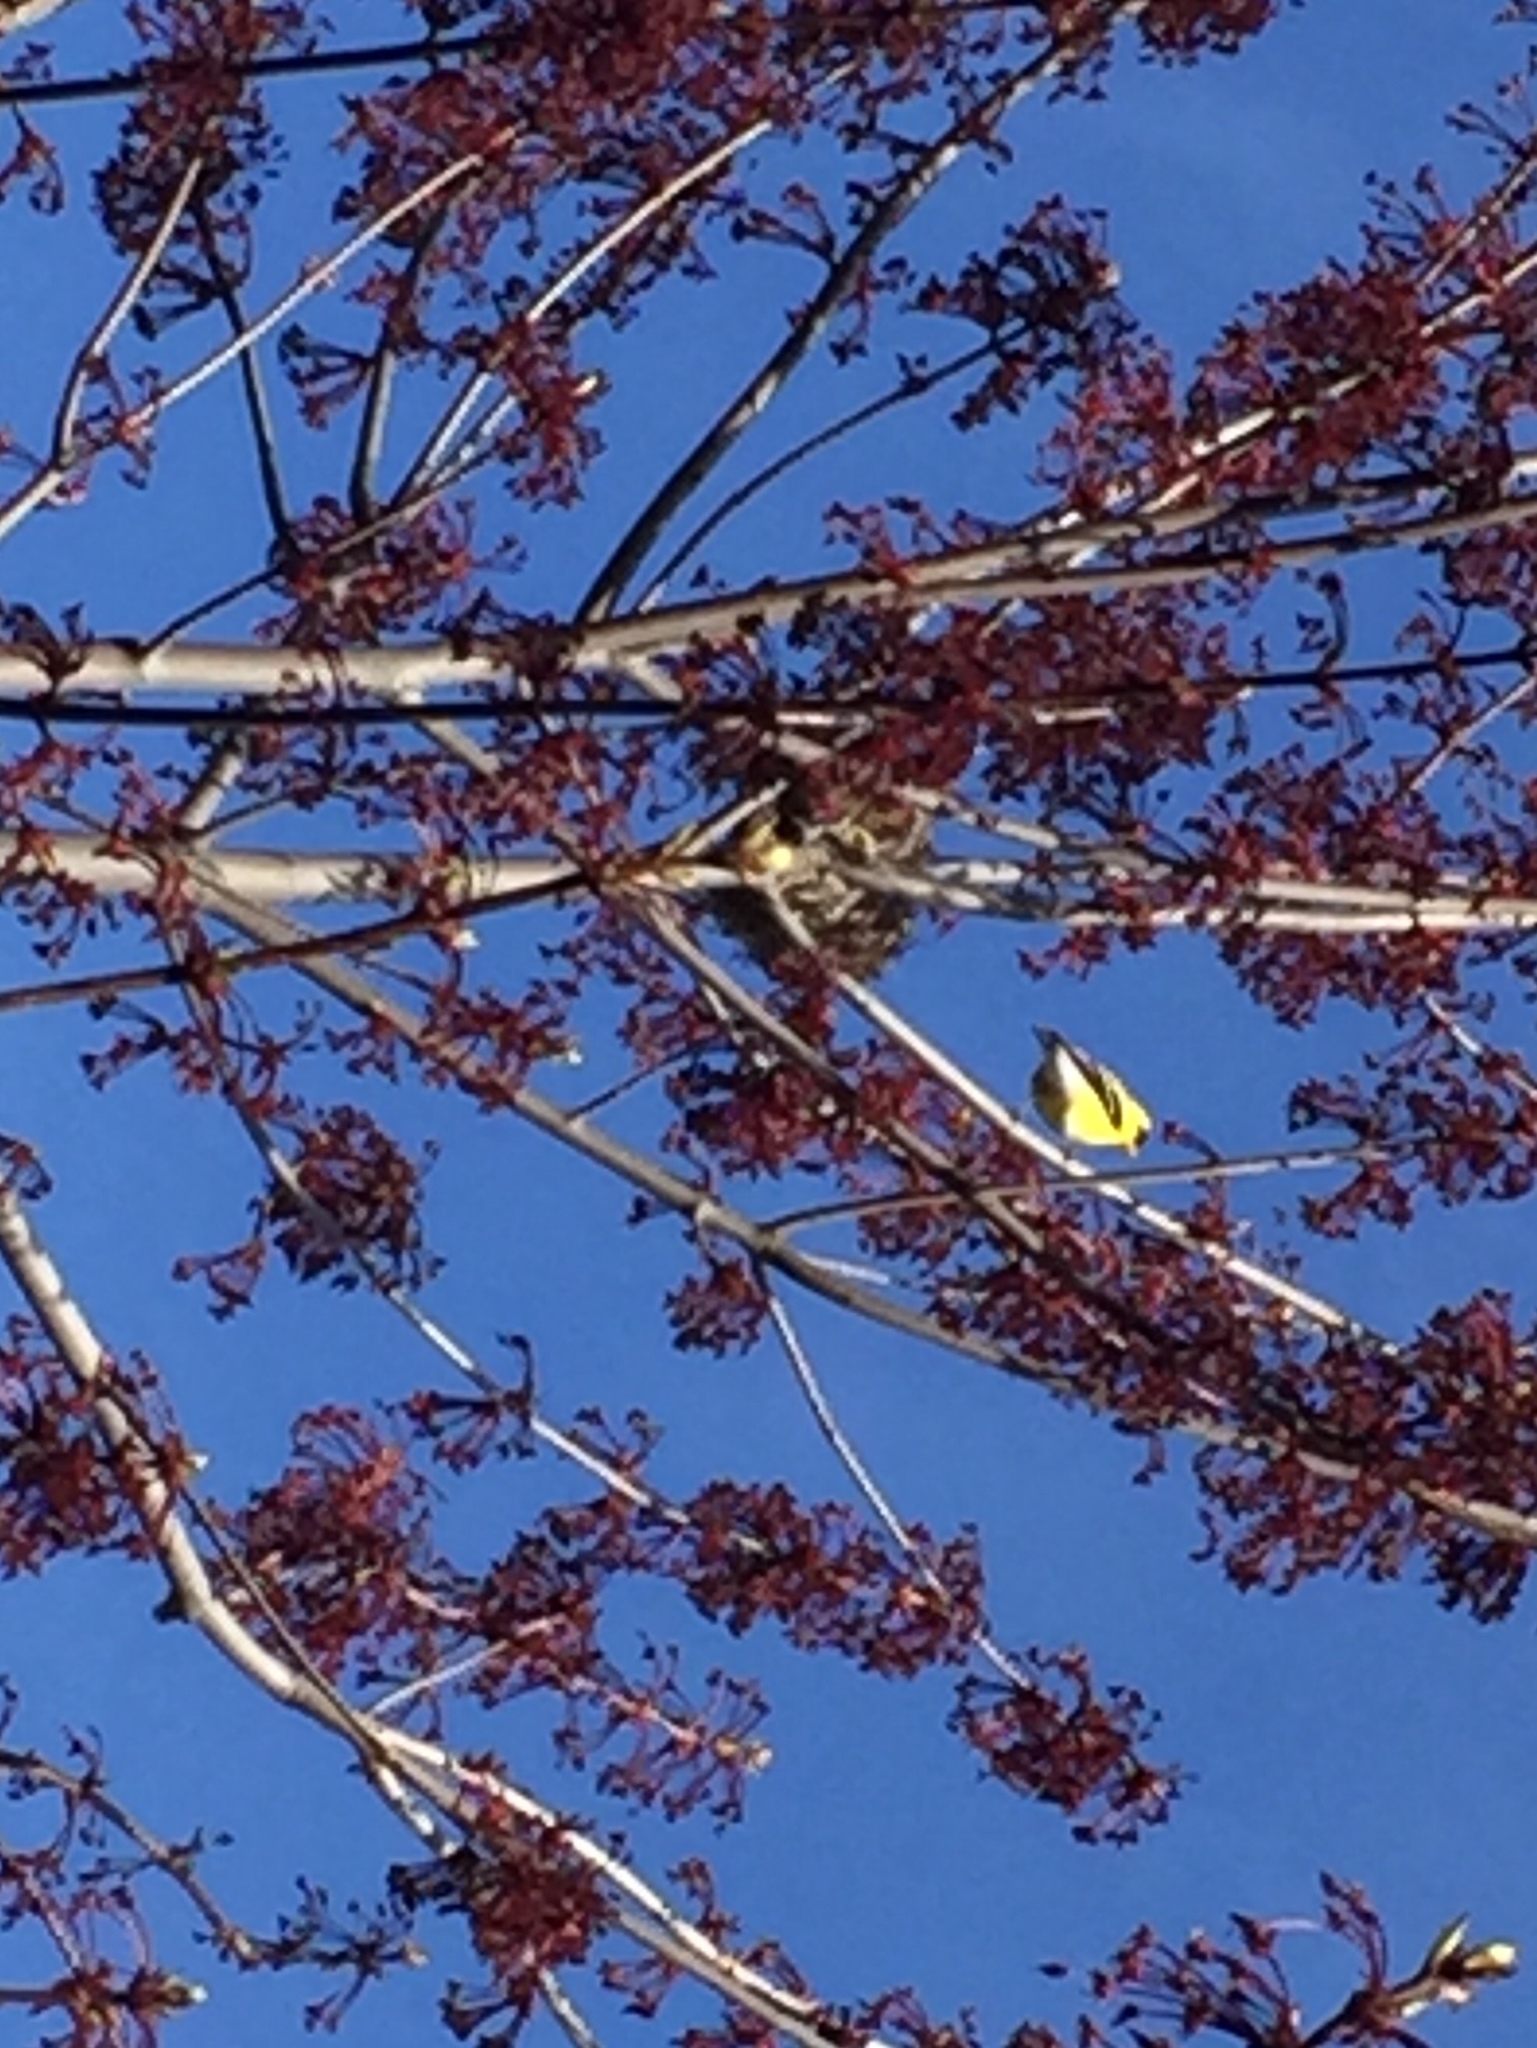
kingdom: Animalia
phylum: Chordata
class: Aves
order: Passeriformes
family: Fringillidae
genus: Spinus
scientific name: Spinus tristis
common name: American goldfinch
